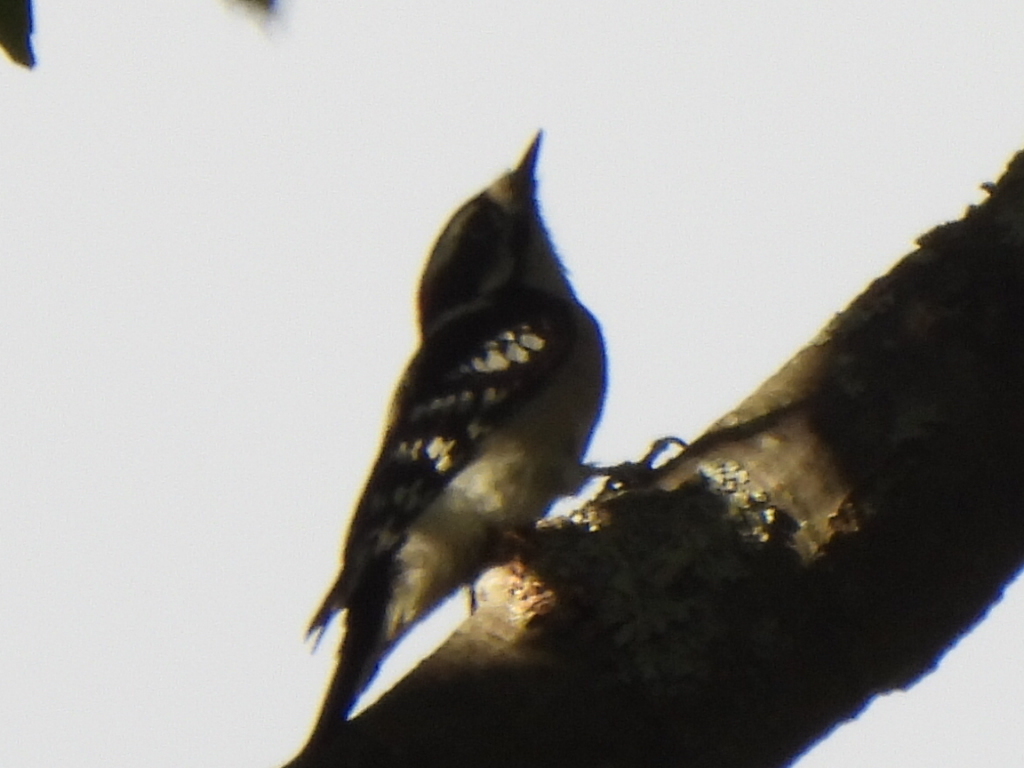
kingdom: Animalia
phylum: Chordata
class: Aves
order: Piciformes
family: Picidae
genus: Dryobates
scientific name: Dryobates pubescens
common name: Downy woodpecker
